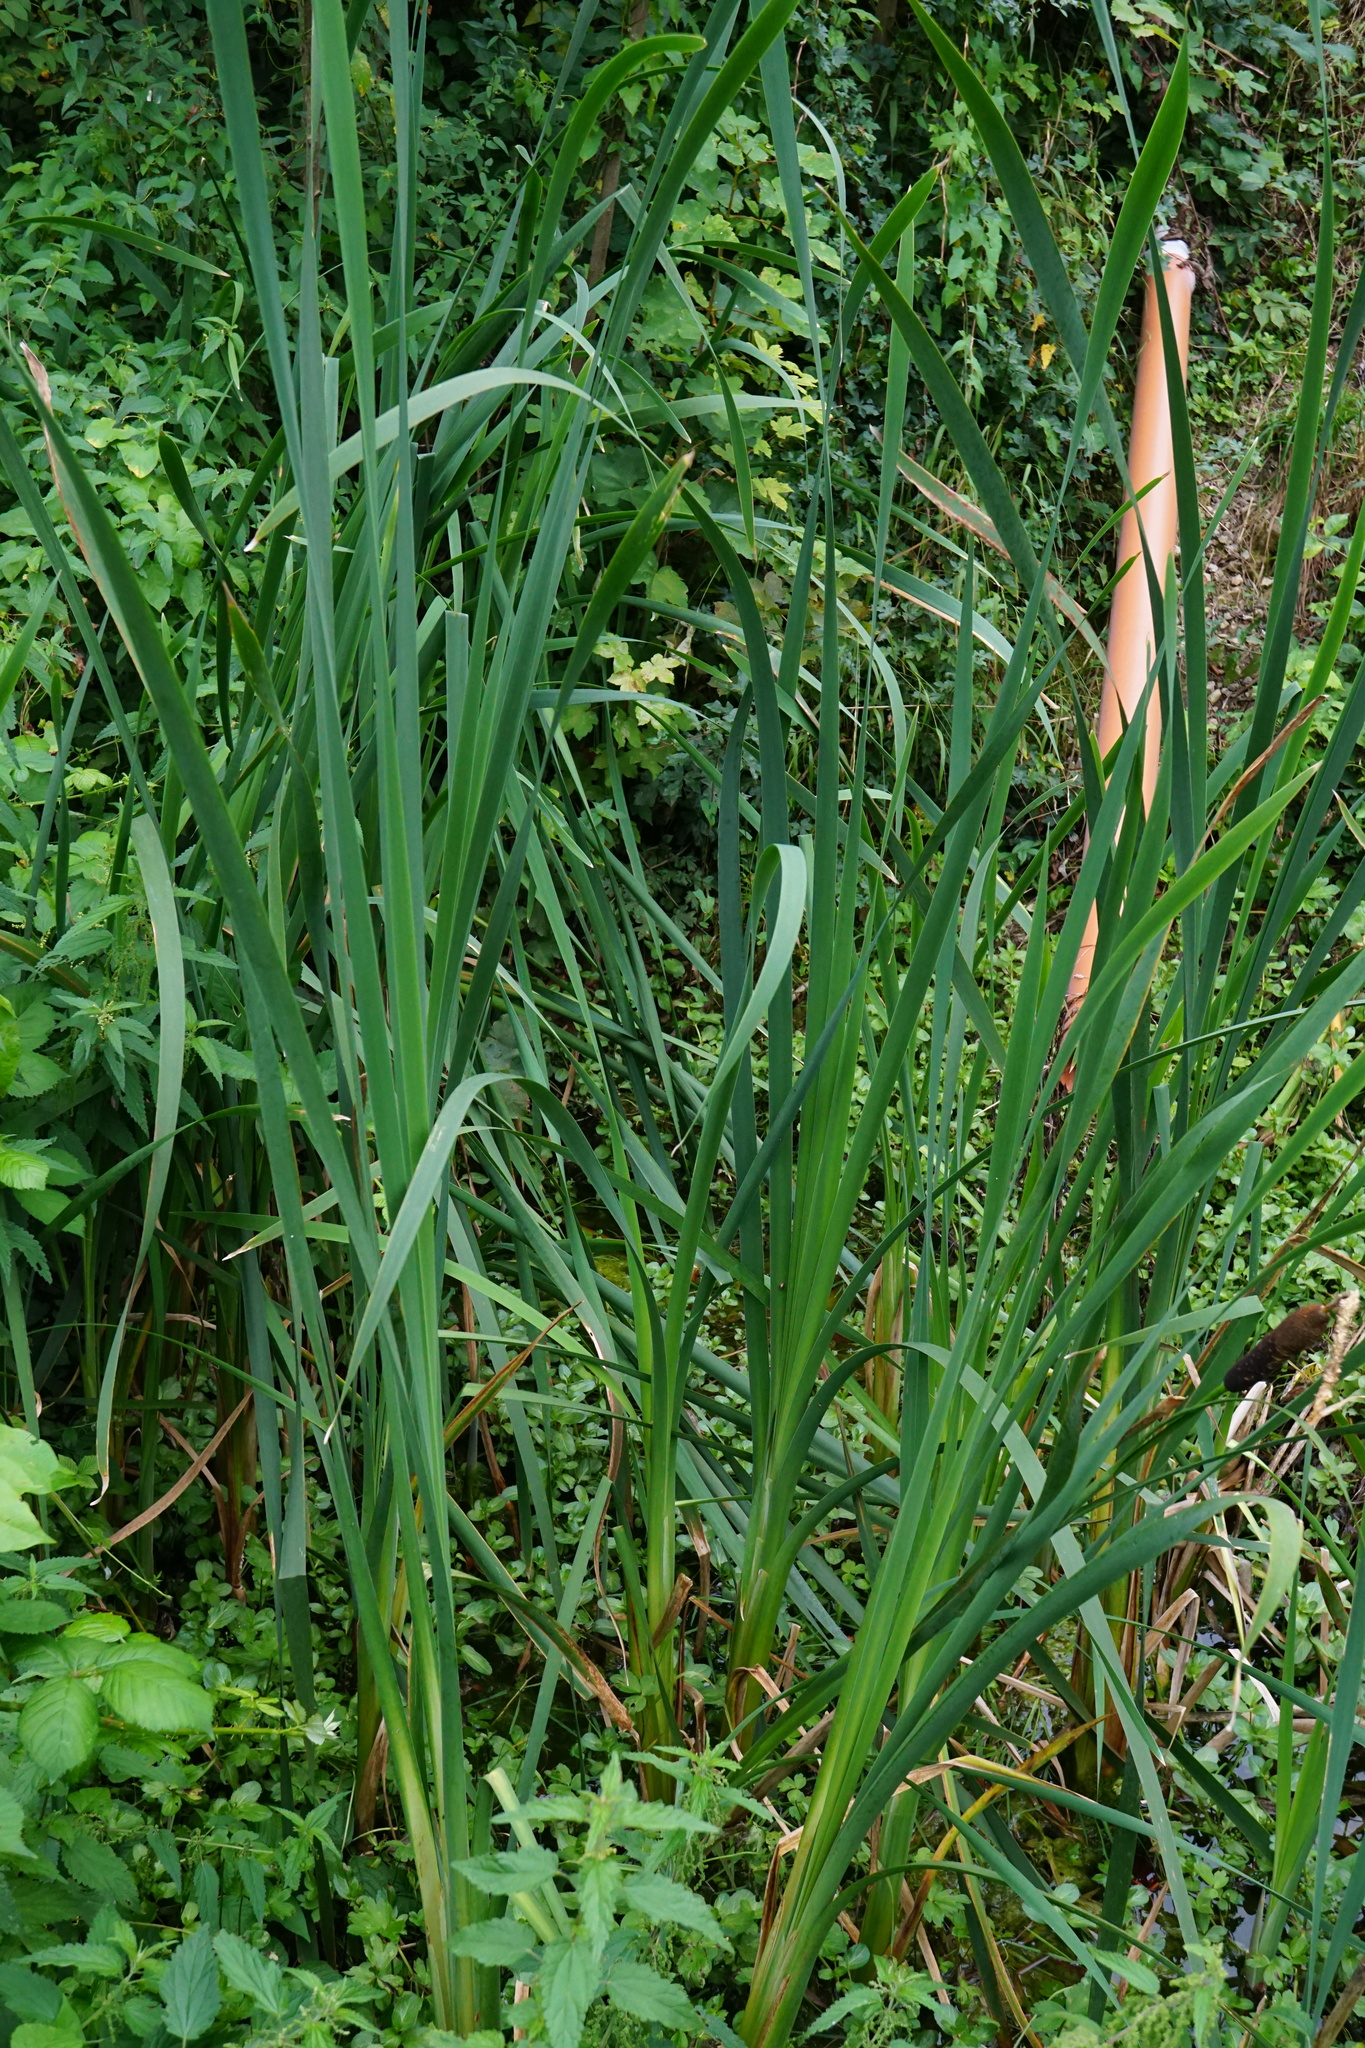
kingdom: Plantae
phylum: Tracheophyta
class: Liliopsida
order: Poales
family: Typhaceae
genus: Typha
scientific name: Typha latifolia
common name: Broadleaf cattail
